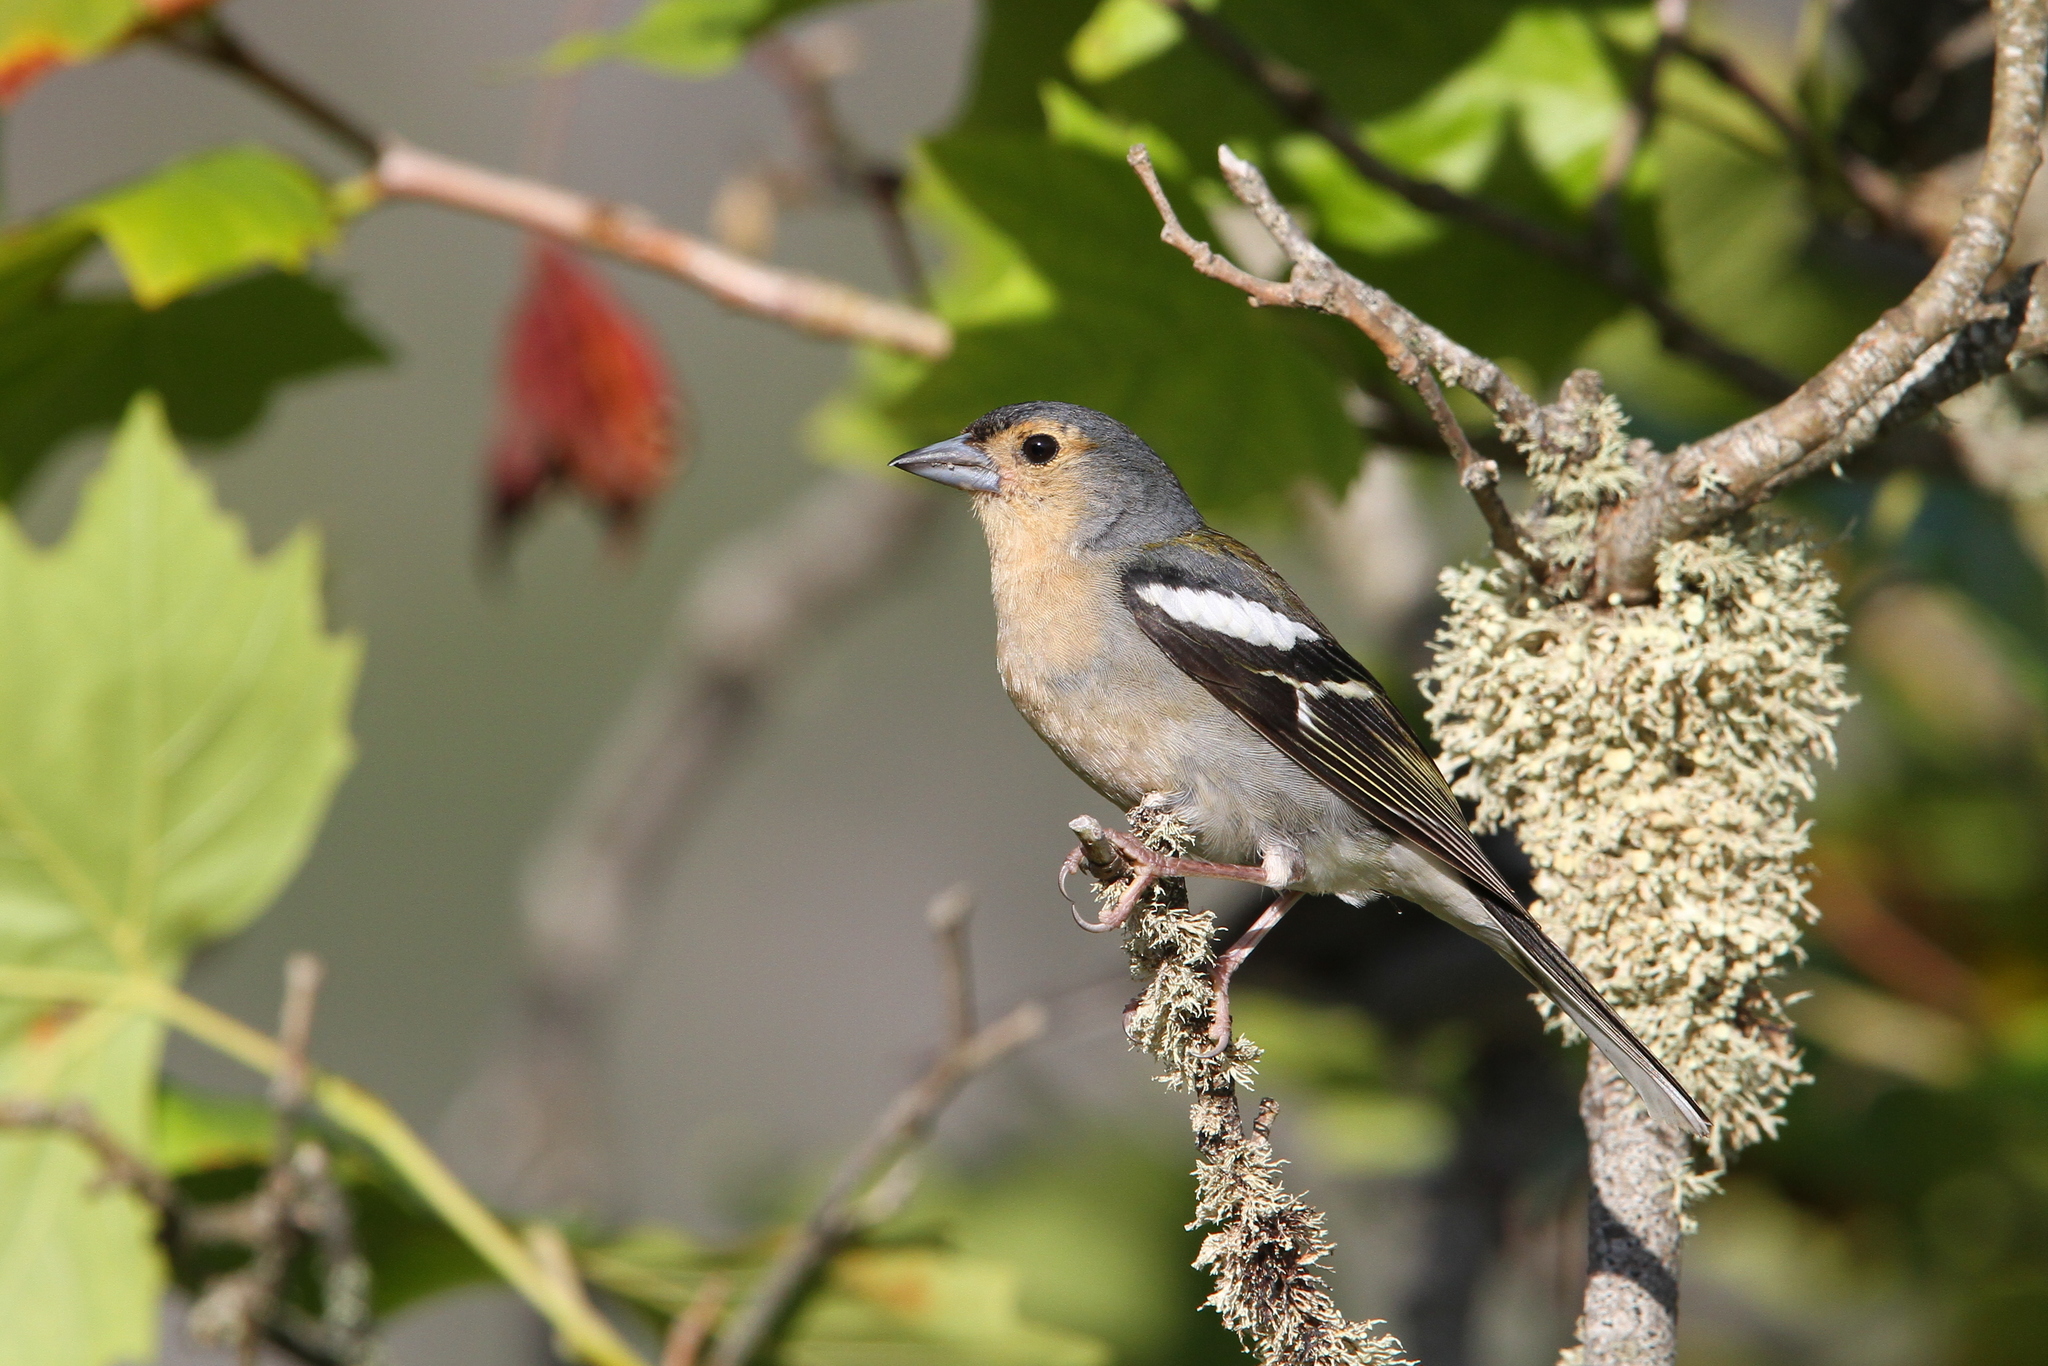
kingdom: Animalia
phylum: Chordata
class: Aves
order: Passeriformes
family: Fringillidae
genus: Fringilla
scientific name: Fringilla maderensis
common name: Madeira chaffinch
